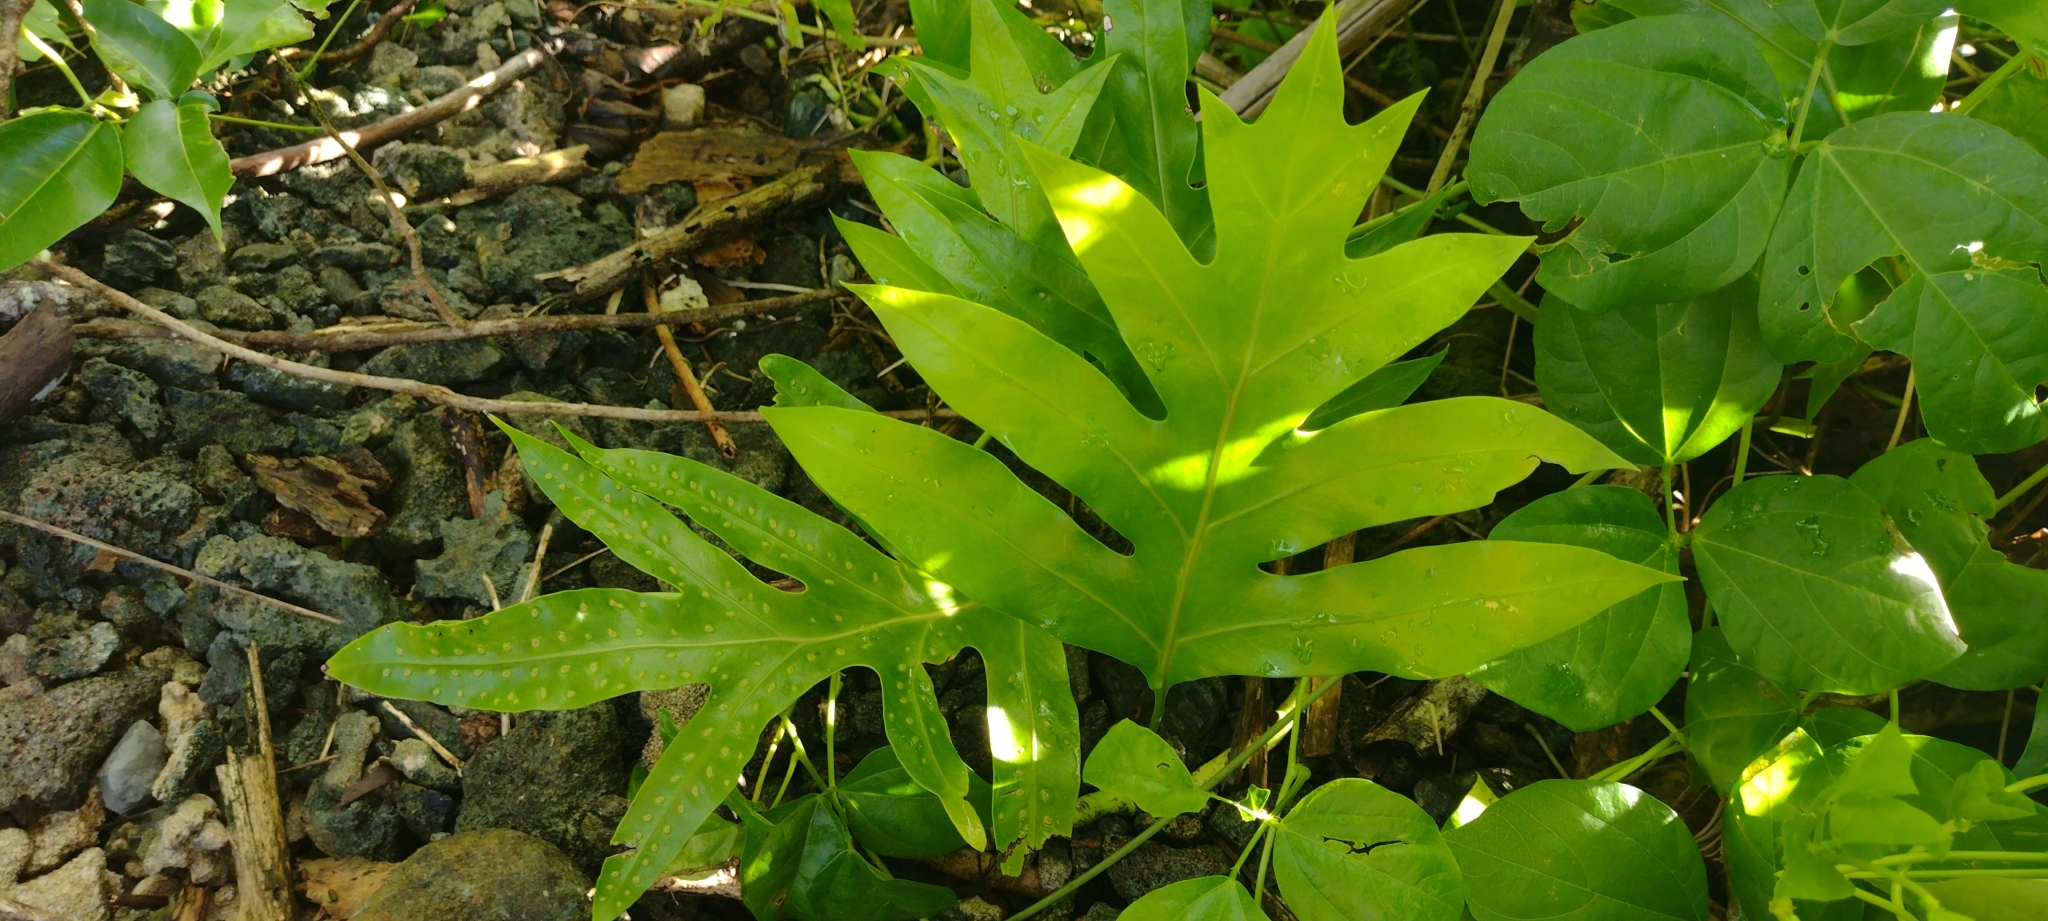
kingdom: Plantae
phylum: Tracheophyta
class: Polypodiopsida
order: Polypodiales
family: Polypodiaceae
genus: Microsorum
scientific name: Microsorum scolopendria
